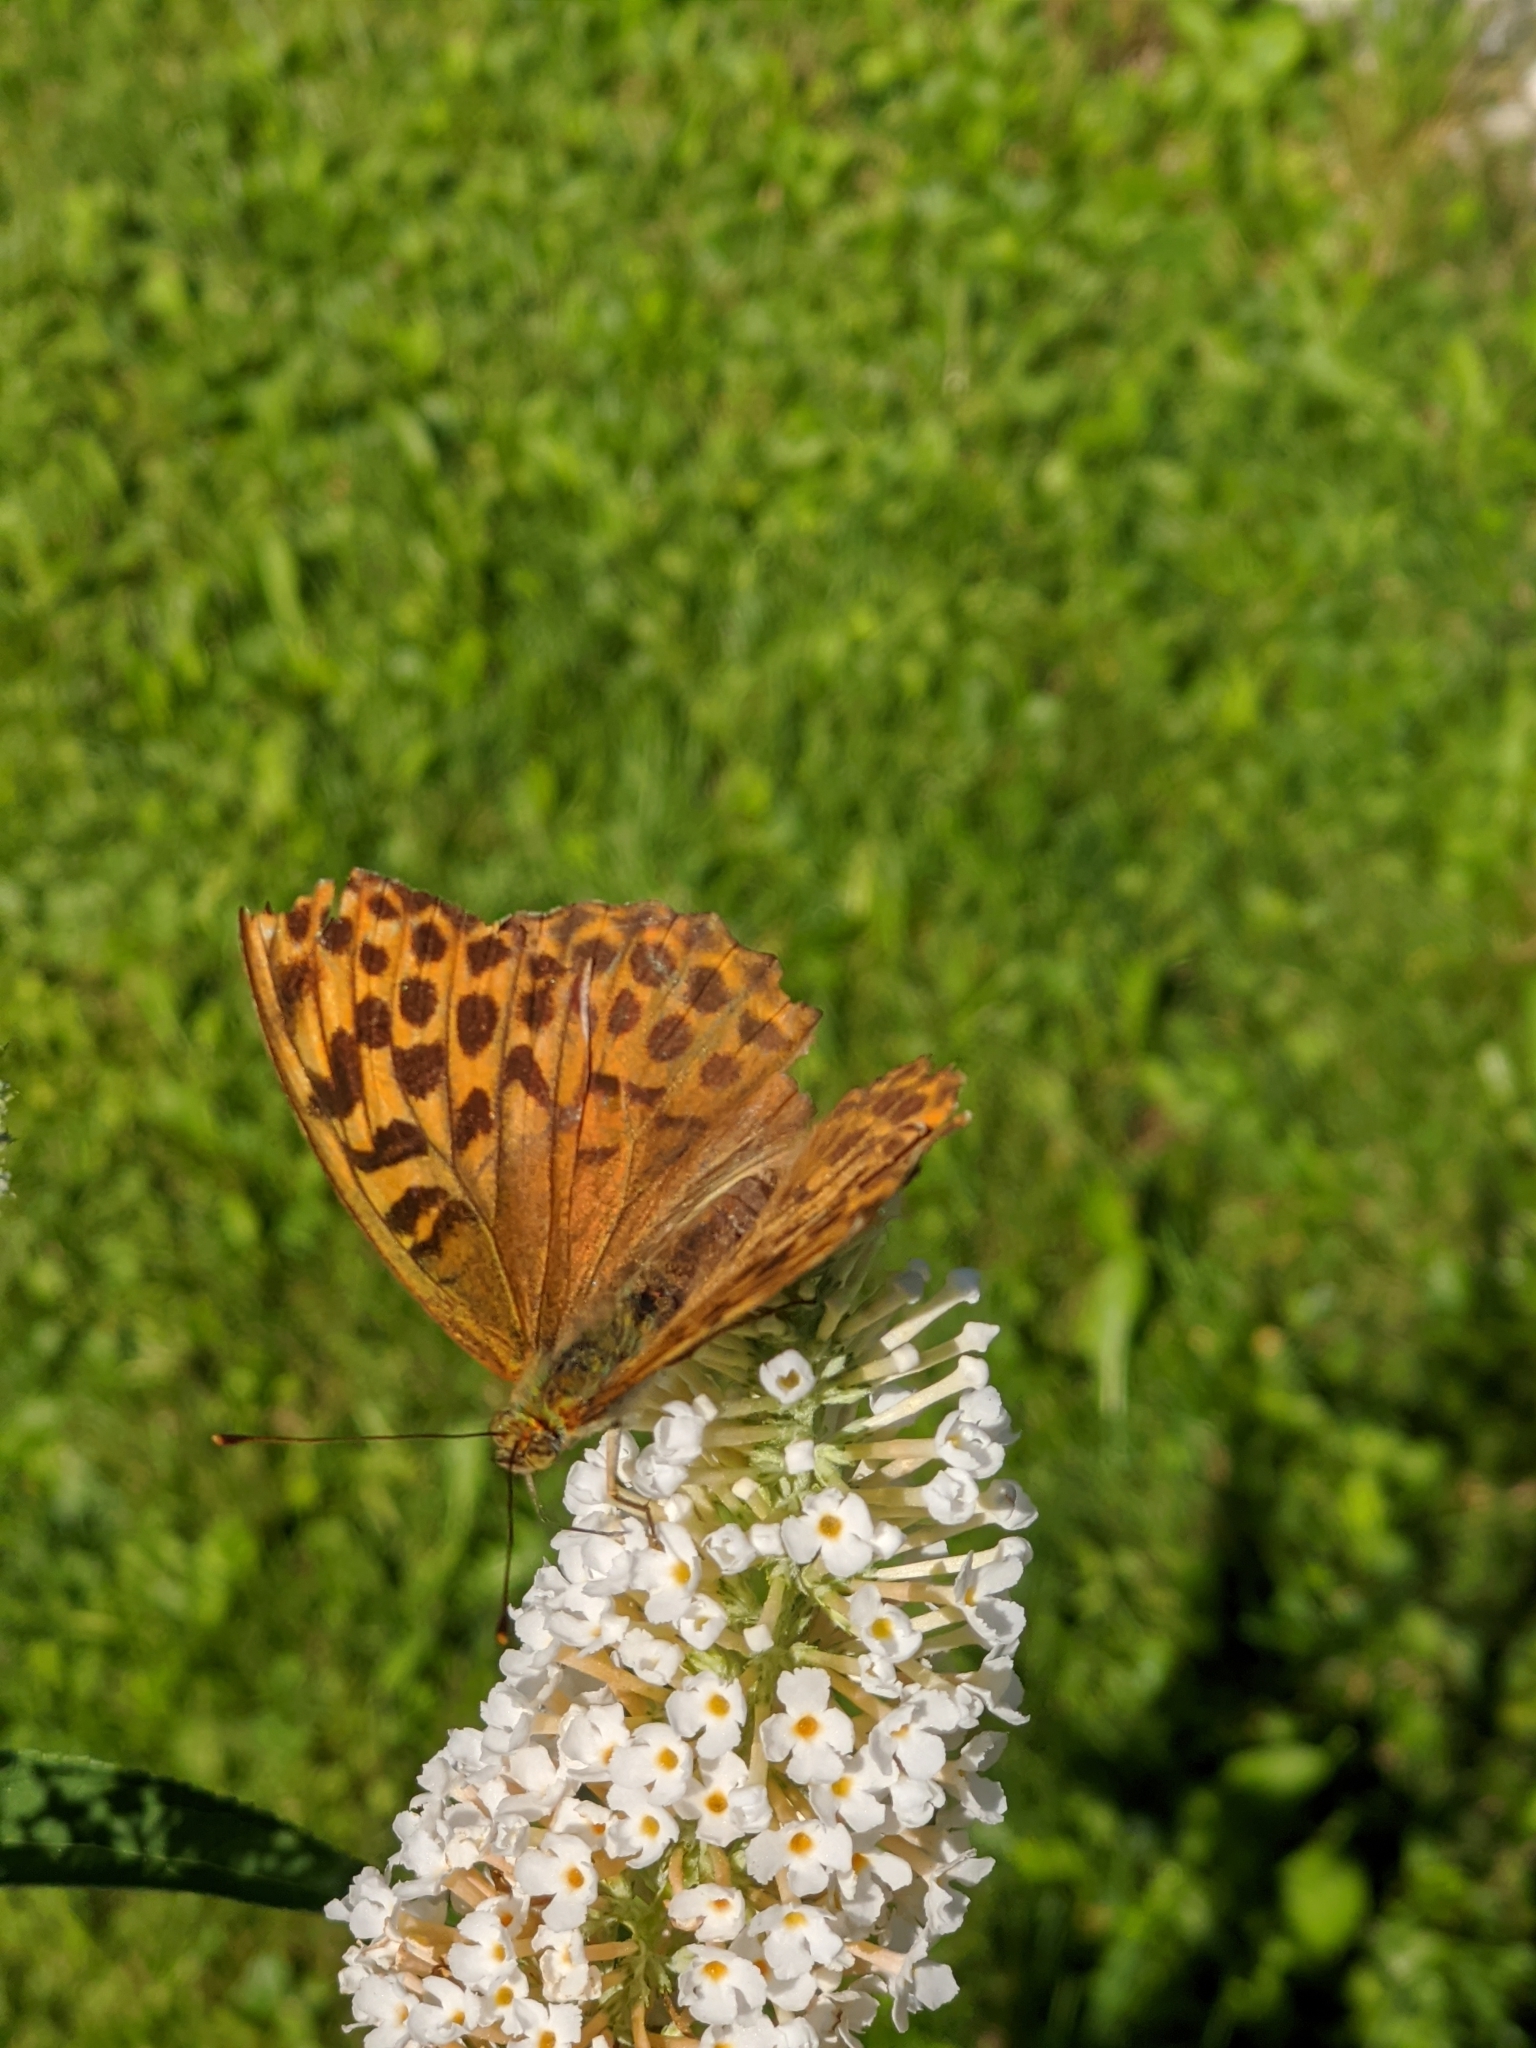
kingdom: Animalia
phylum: Arthropoda
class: Insecta
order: Lepidoptera
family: Nymphalidae
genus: Argynnis
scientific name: Argynnis paphia
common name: Silver-washed fritillary
